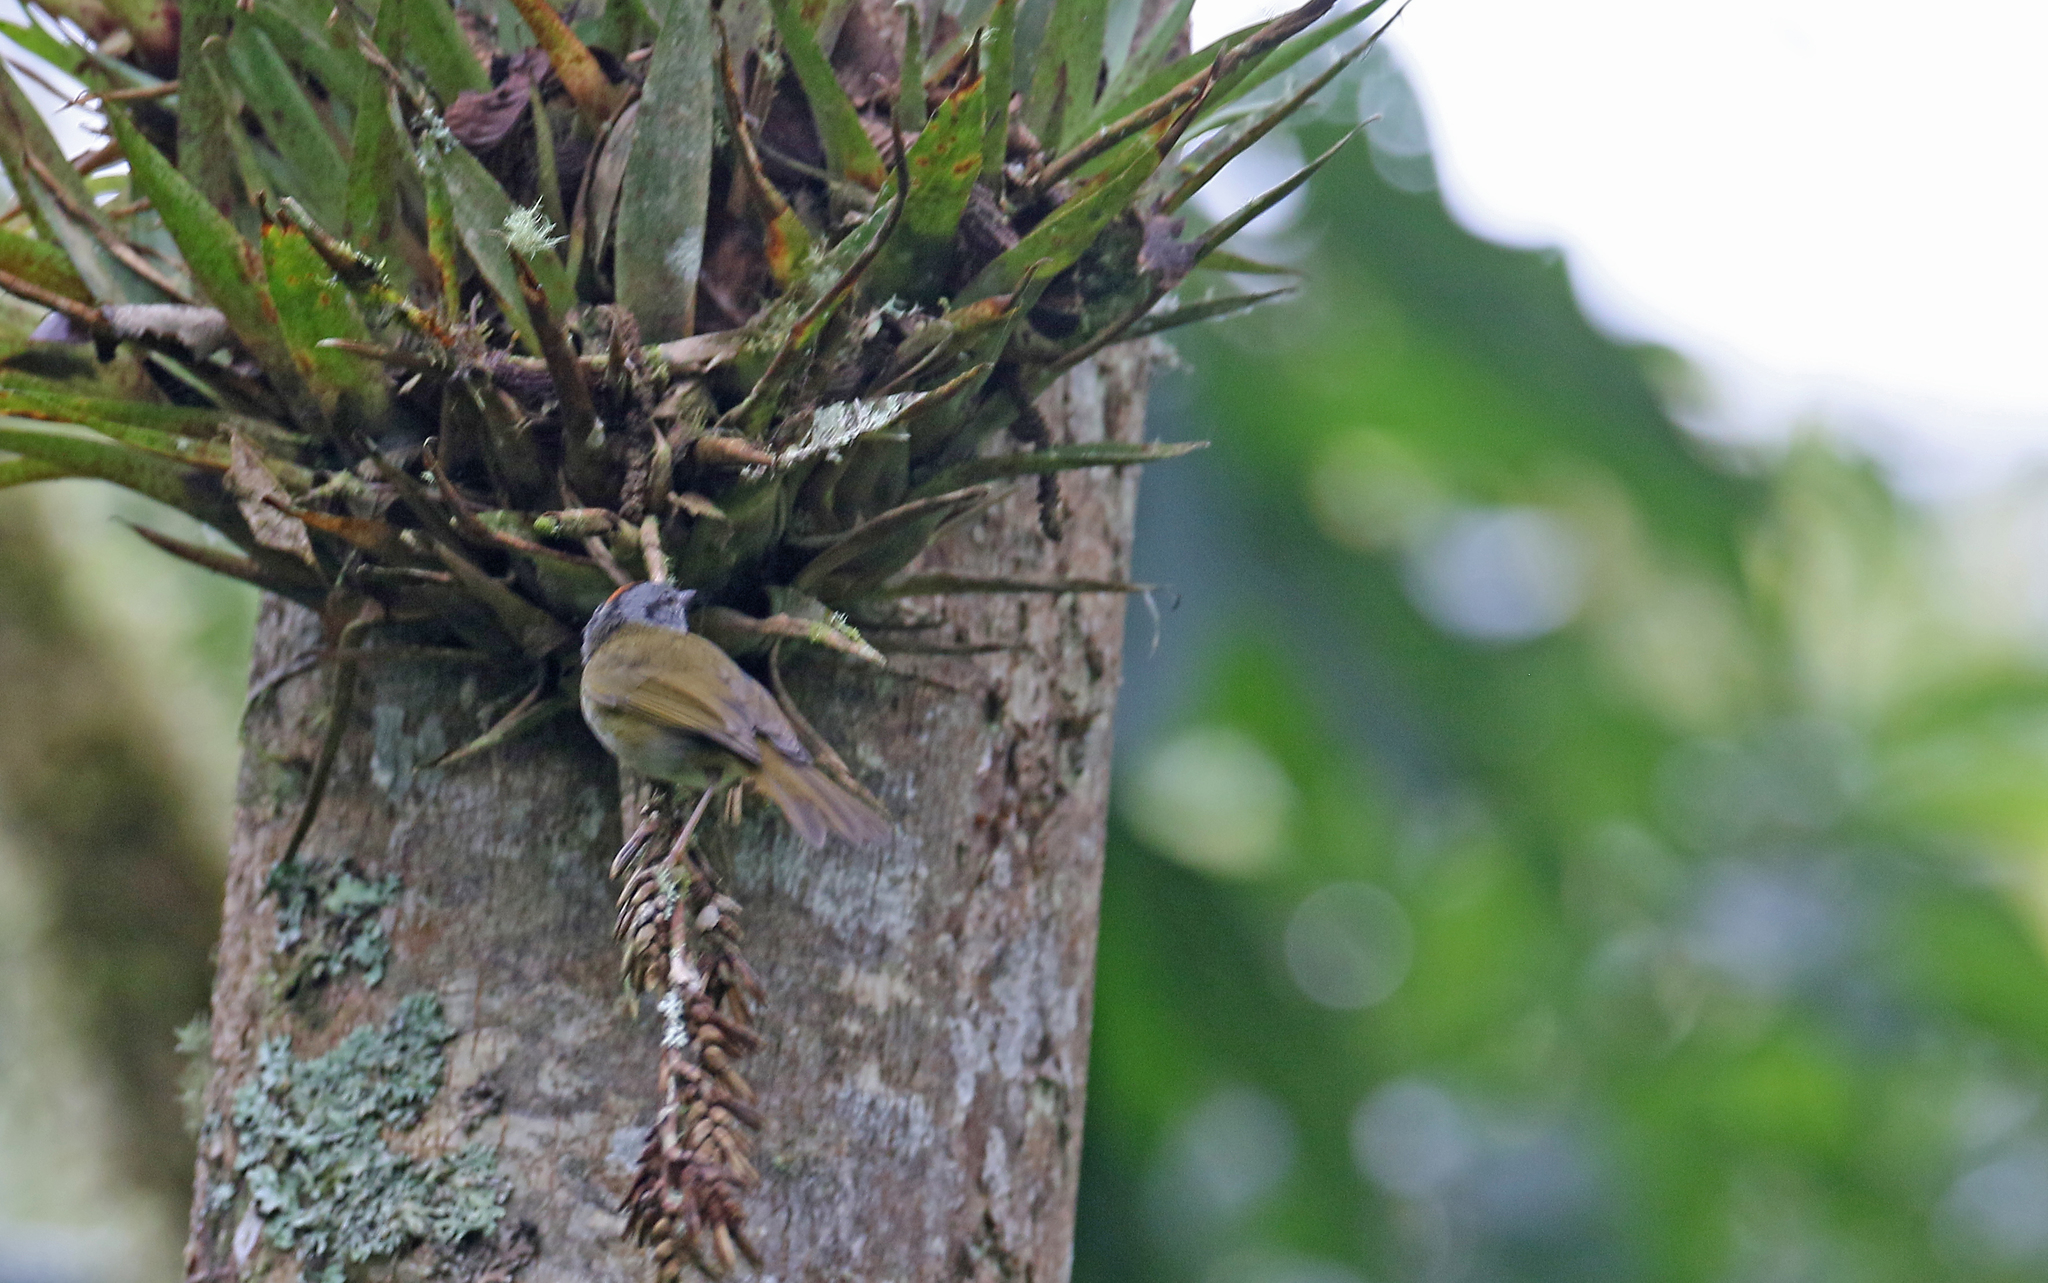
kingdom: Animalia
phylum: Chordata
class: Aves
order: Passeriformes
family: Parulidae
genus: Myiothlypis
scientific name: Myiothlypis coronata
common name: Russet-crowned warbler
